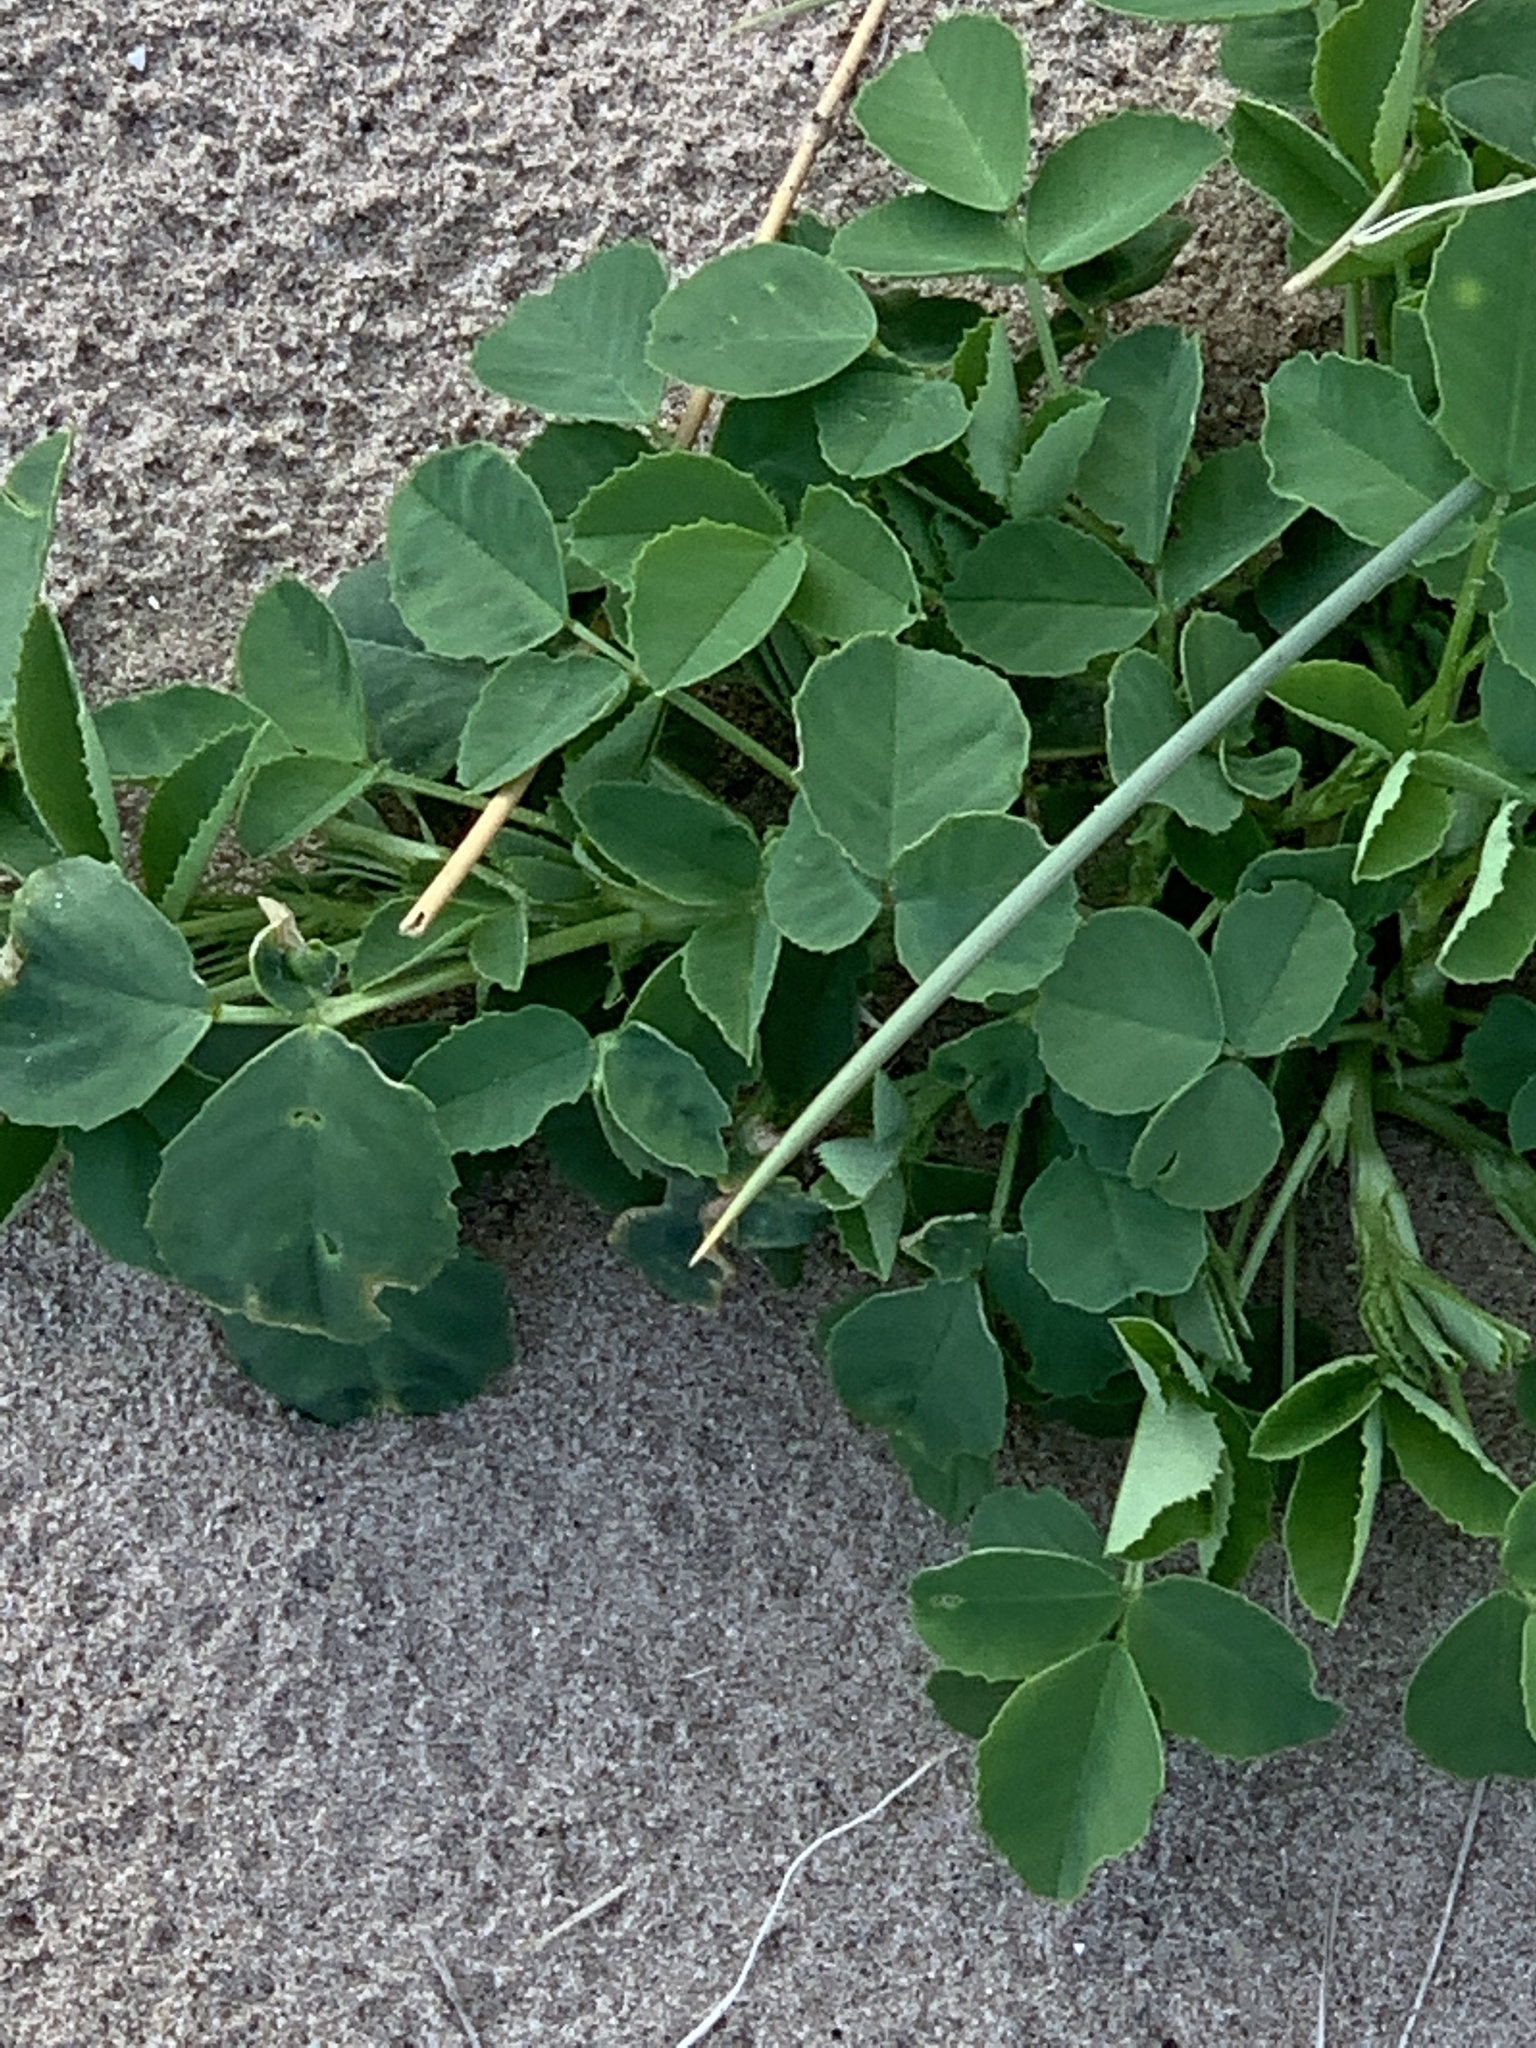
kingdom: Plantae
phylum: Tracheophyta
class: Magnoliopsida
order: Fabales
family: Fabaceae
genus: Trifolium
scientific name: Trifolium repens
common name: White clover
